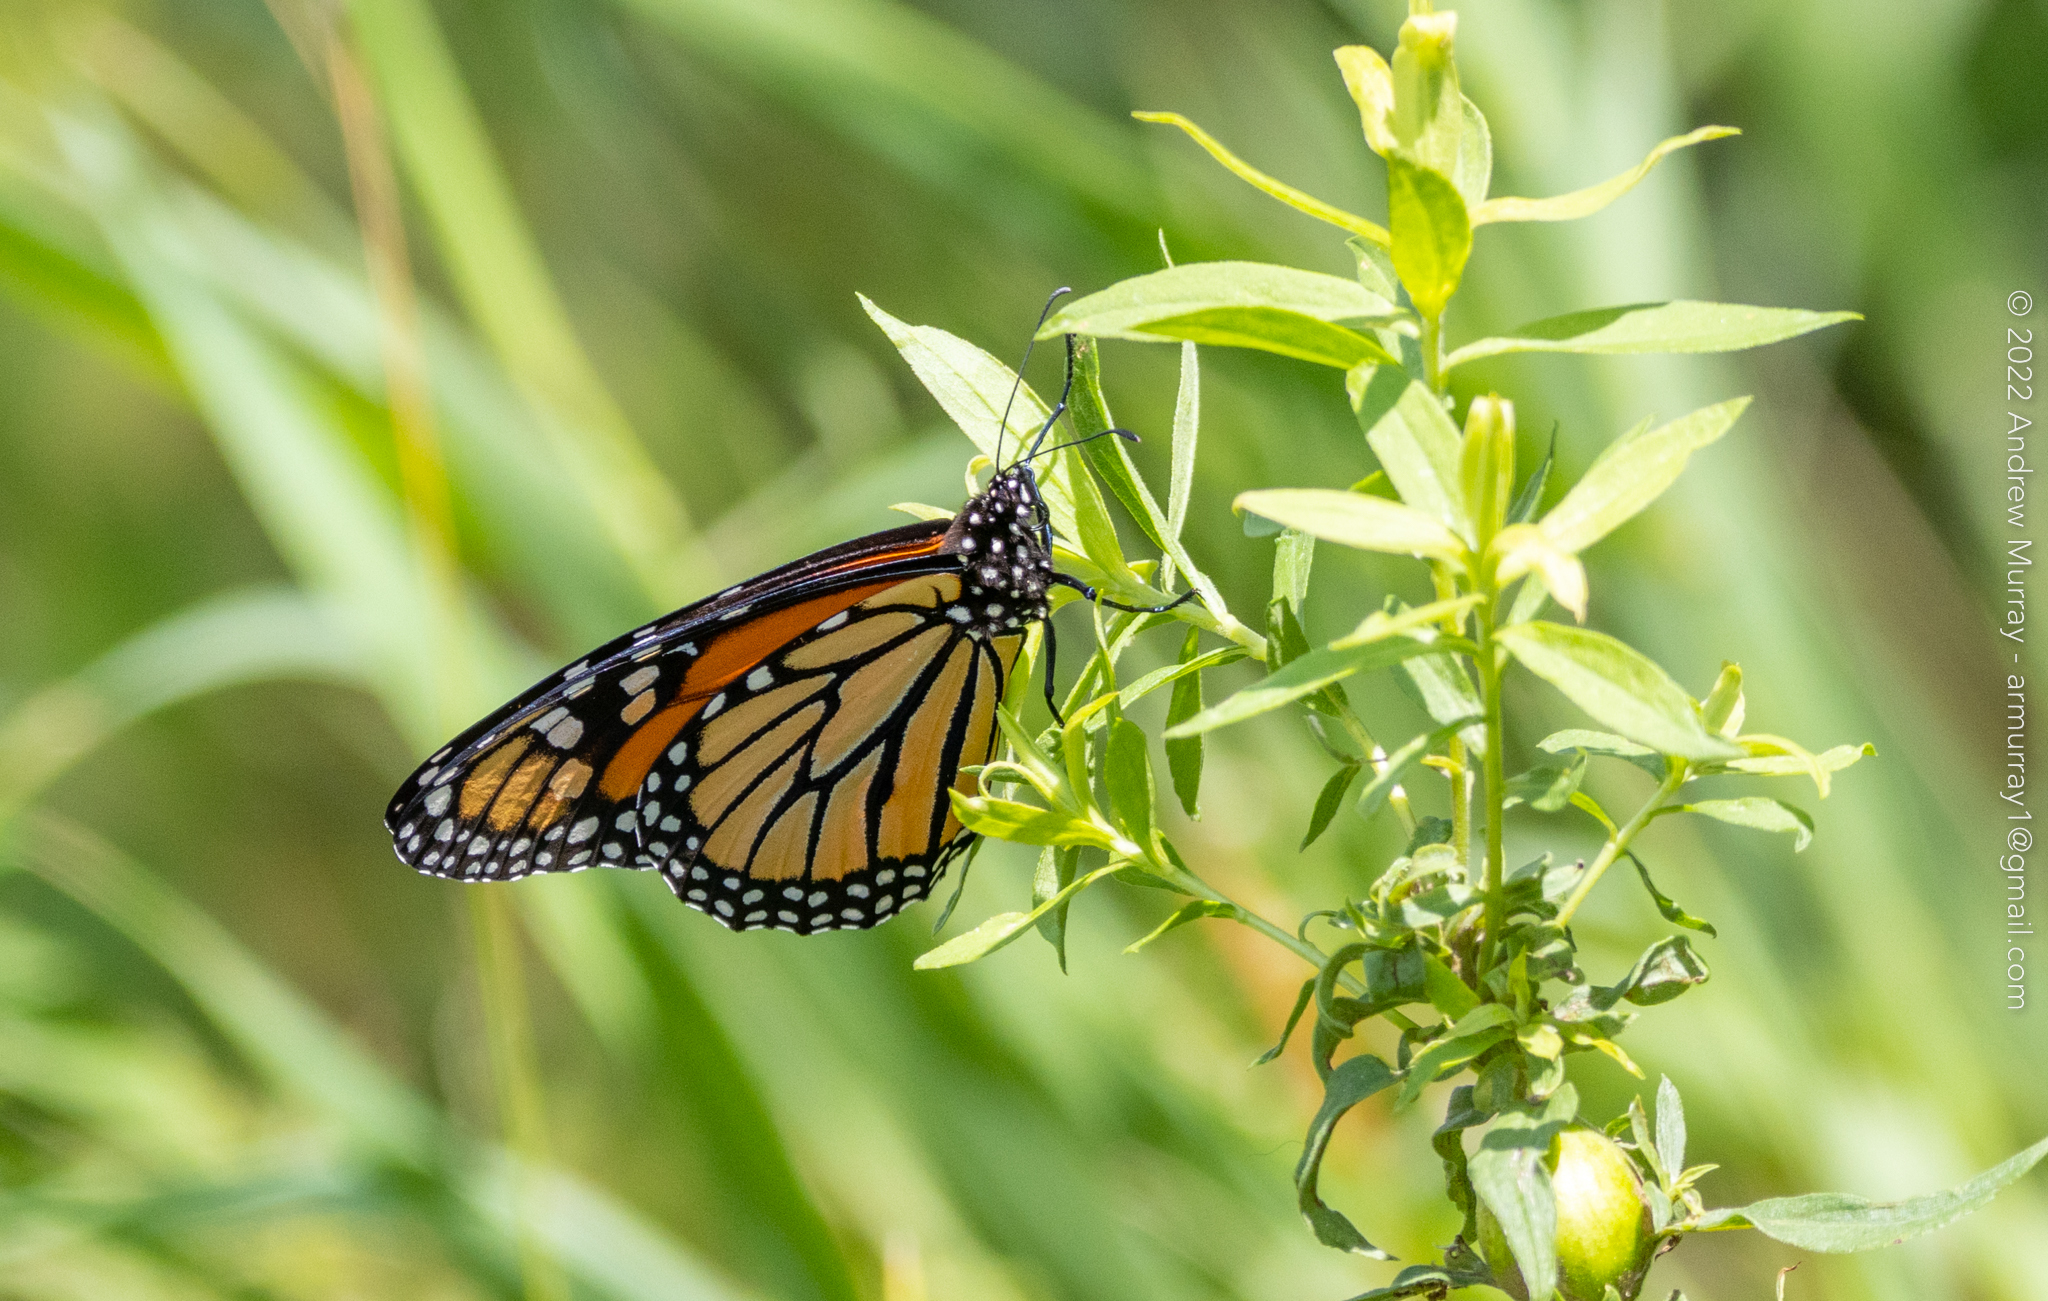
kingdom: Animalia
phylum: Arthropoda
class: Insecta
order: Lepidoptera
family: Nymphalidae
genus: Danaus
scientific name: Danaus plexippus
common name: Monarch
